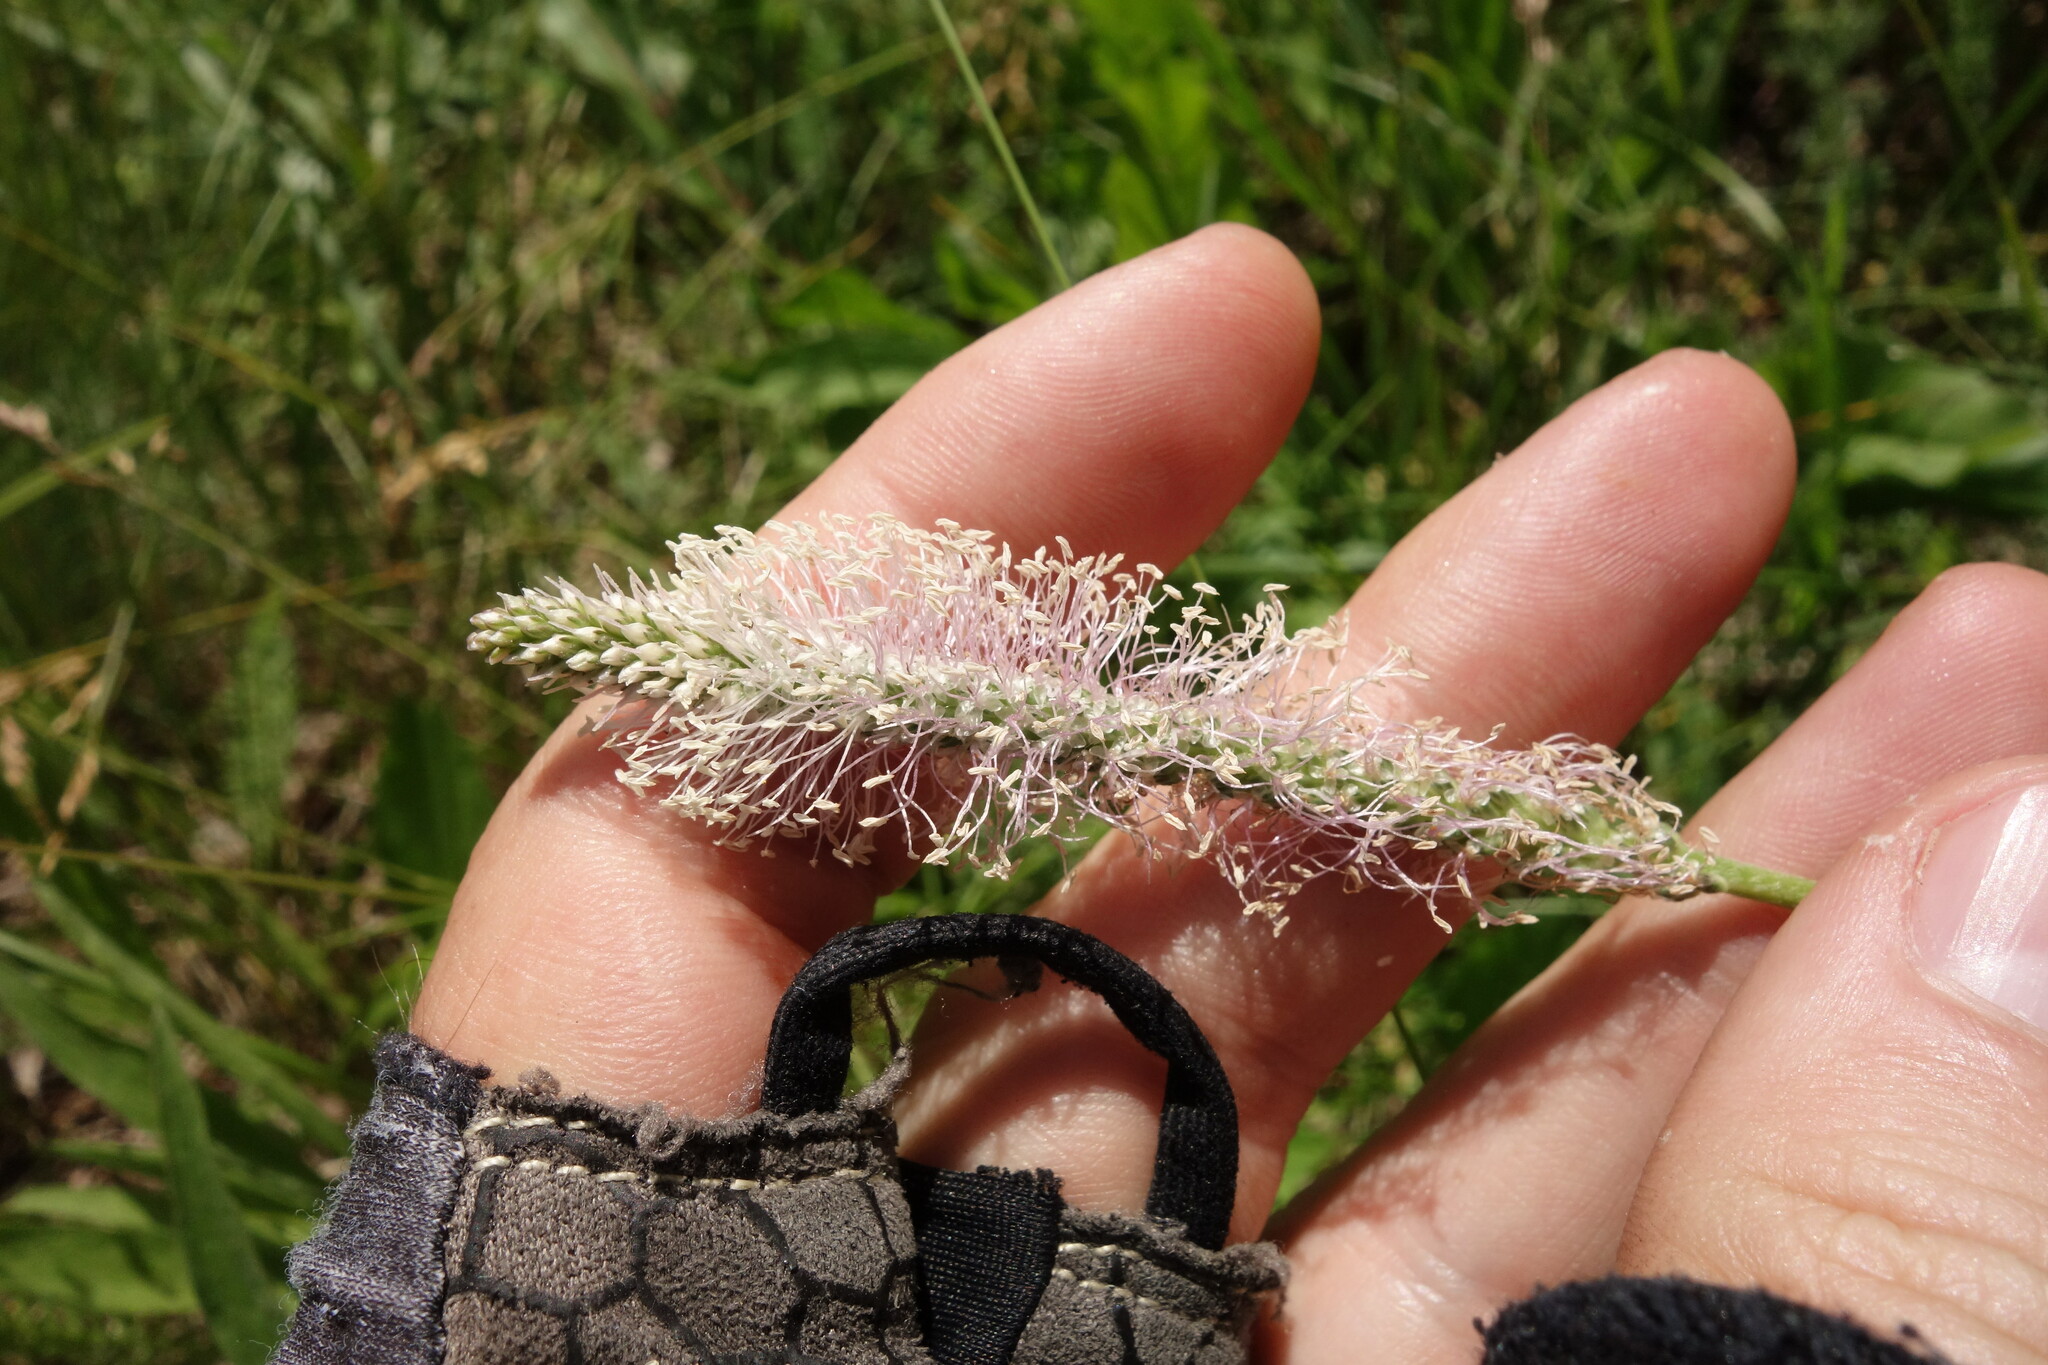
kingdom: Plantae
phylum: Tracheophyta
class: Magnoliopsida
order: Lamiales
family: Plantaginaceae
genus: Plantago
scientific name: Plantago media
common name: Hoary plantain
